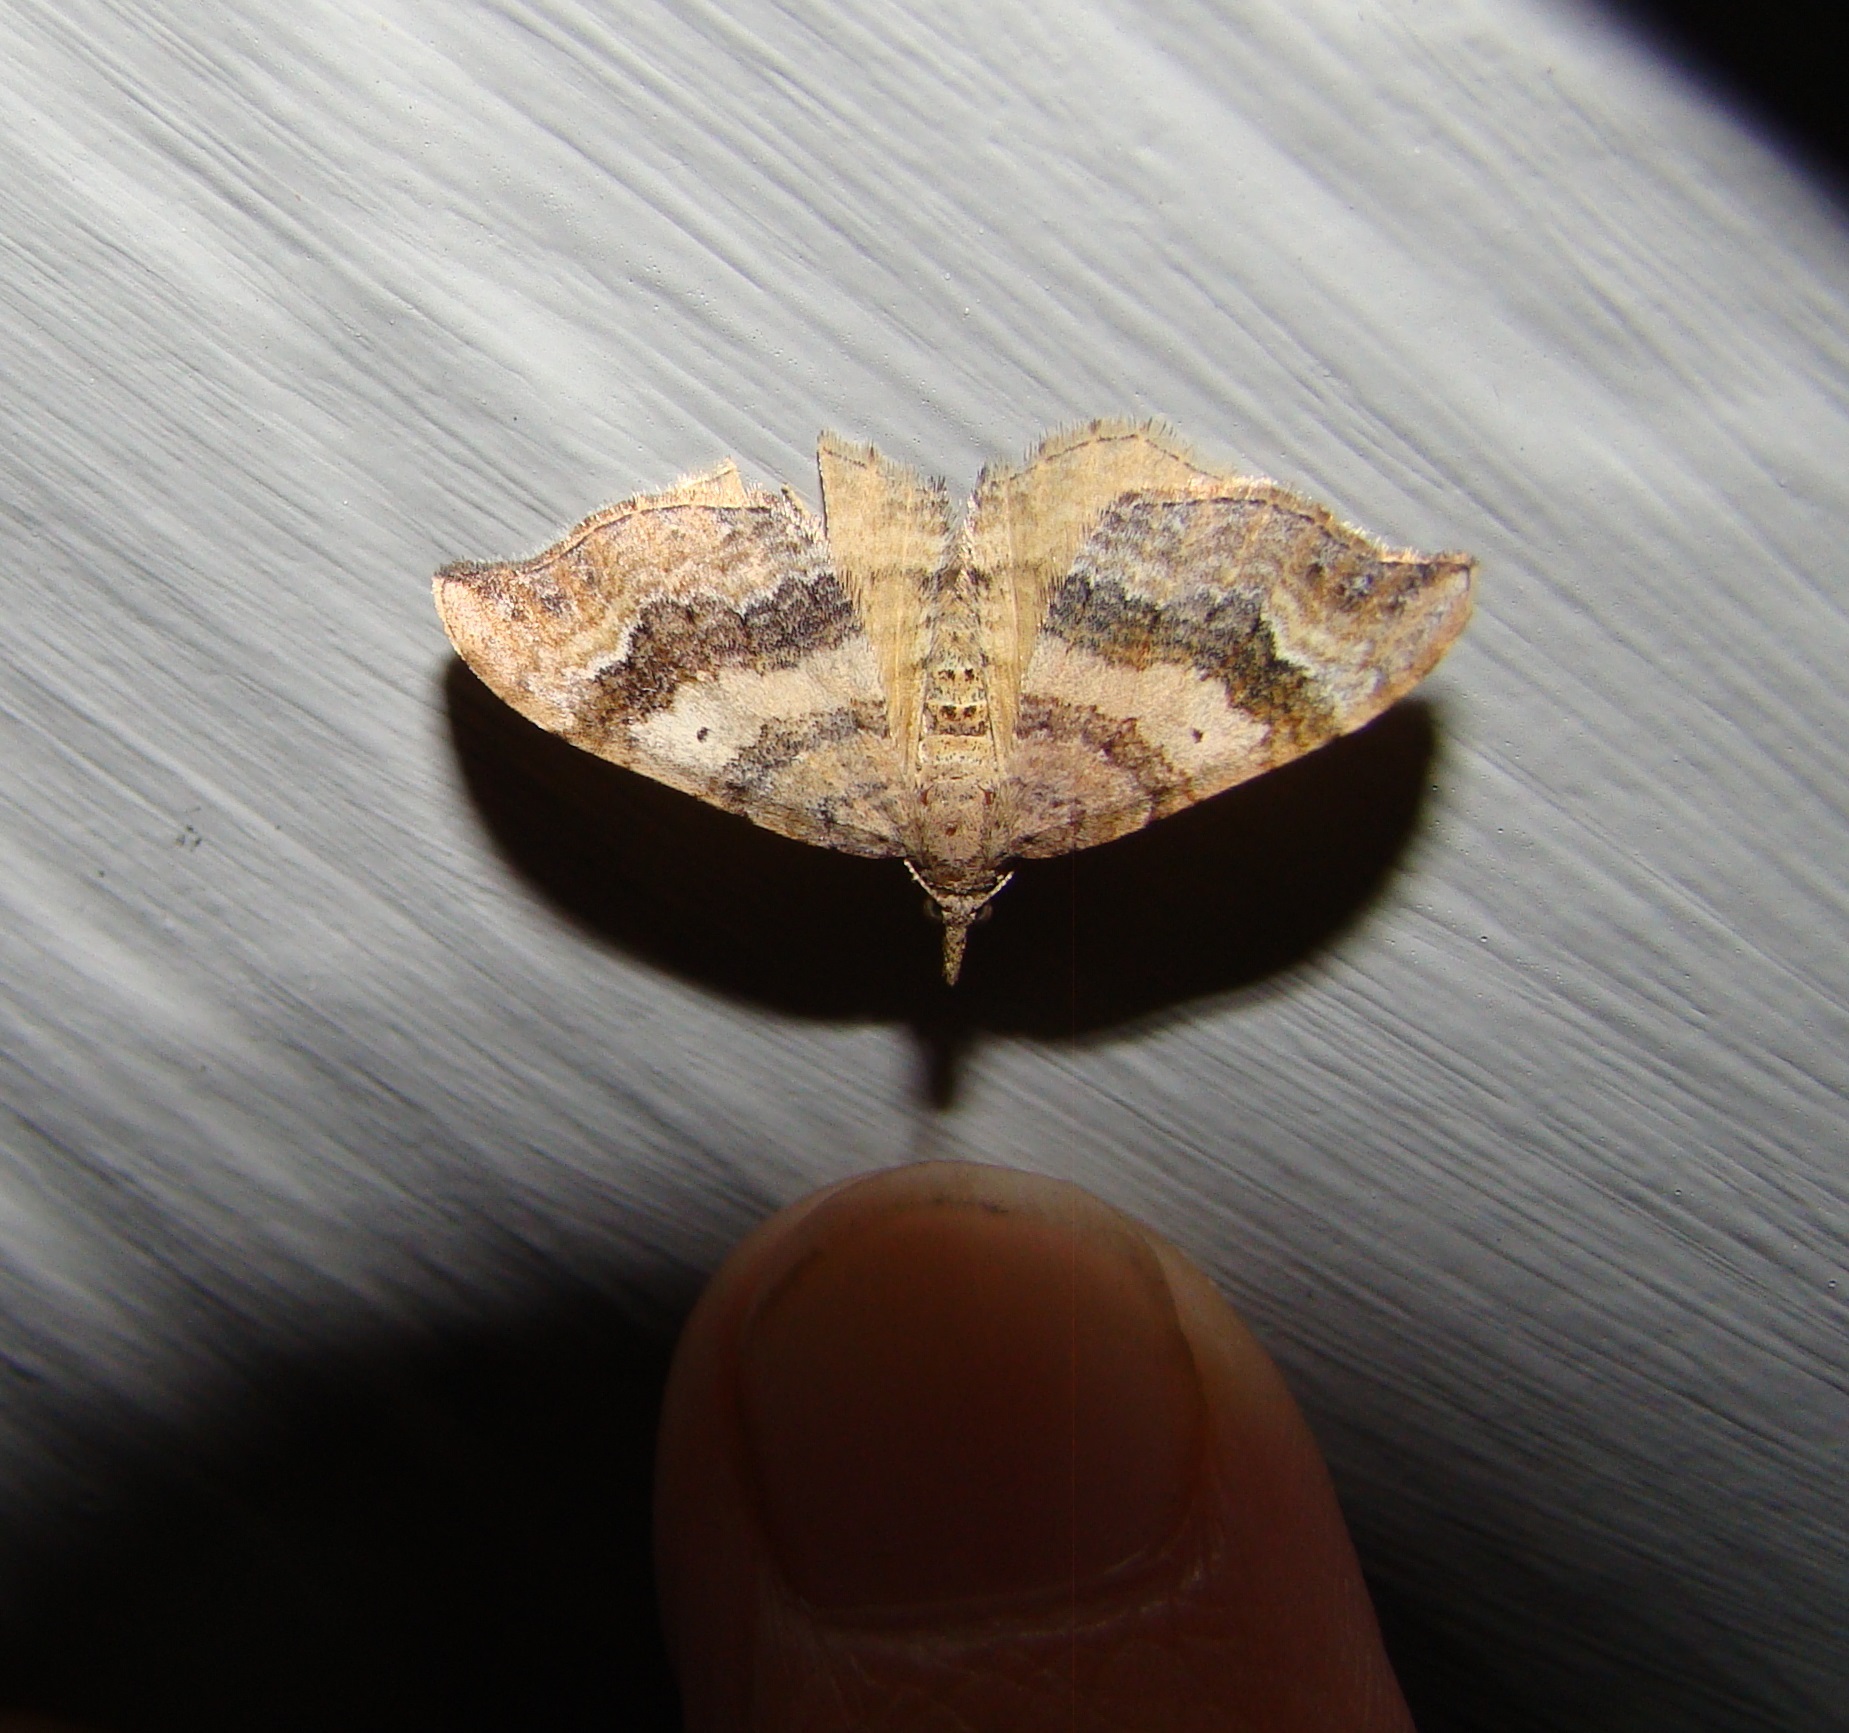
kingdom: Animalia
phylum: Arthropoda
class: Insecta
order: Lepidoptera
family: Geometridae
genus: Homodotis
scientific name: Homodotis megaspilata
